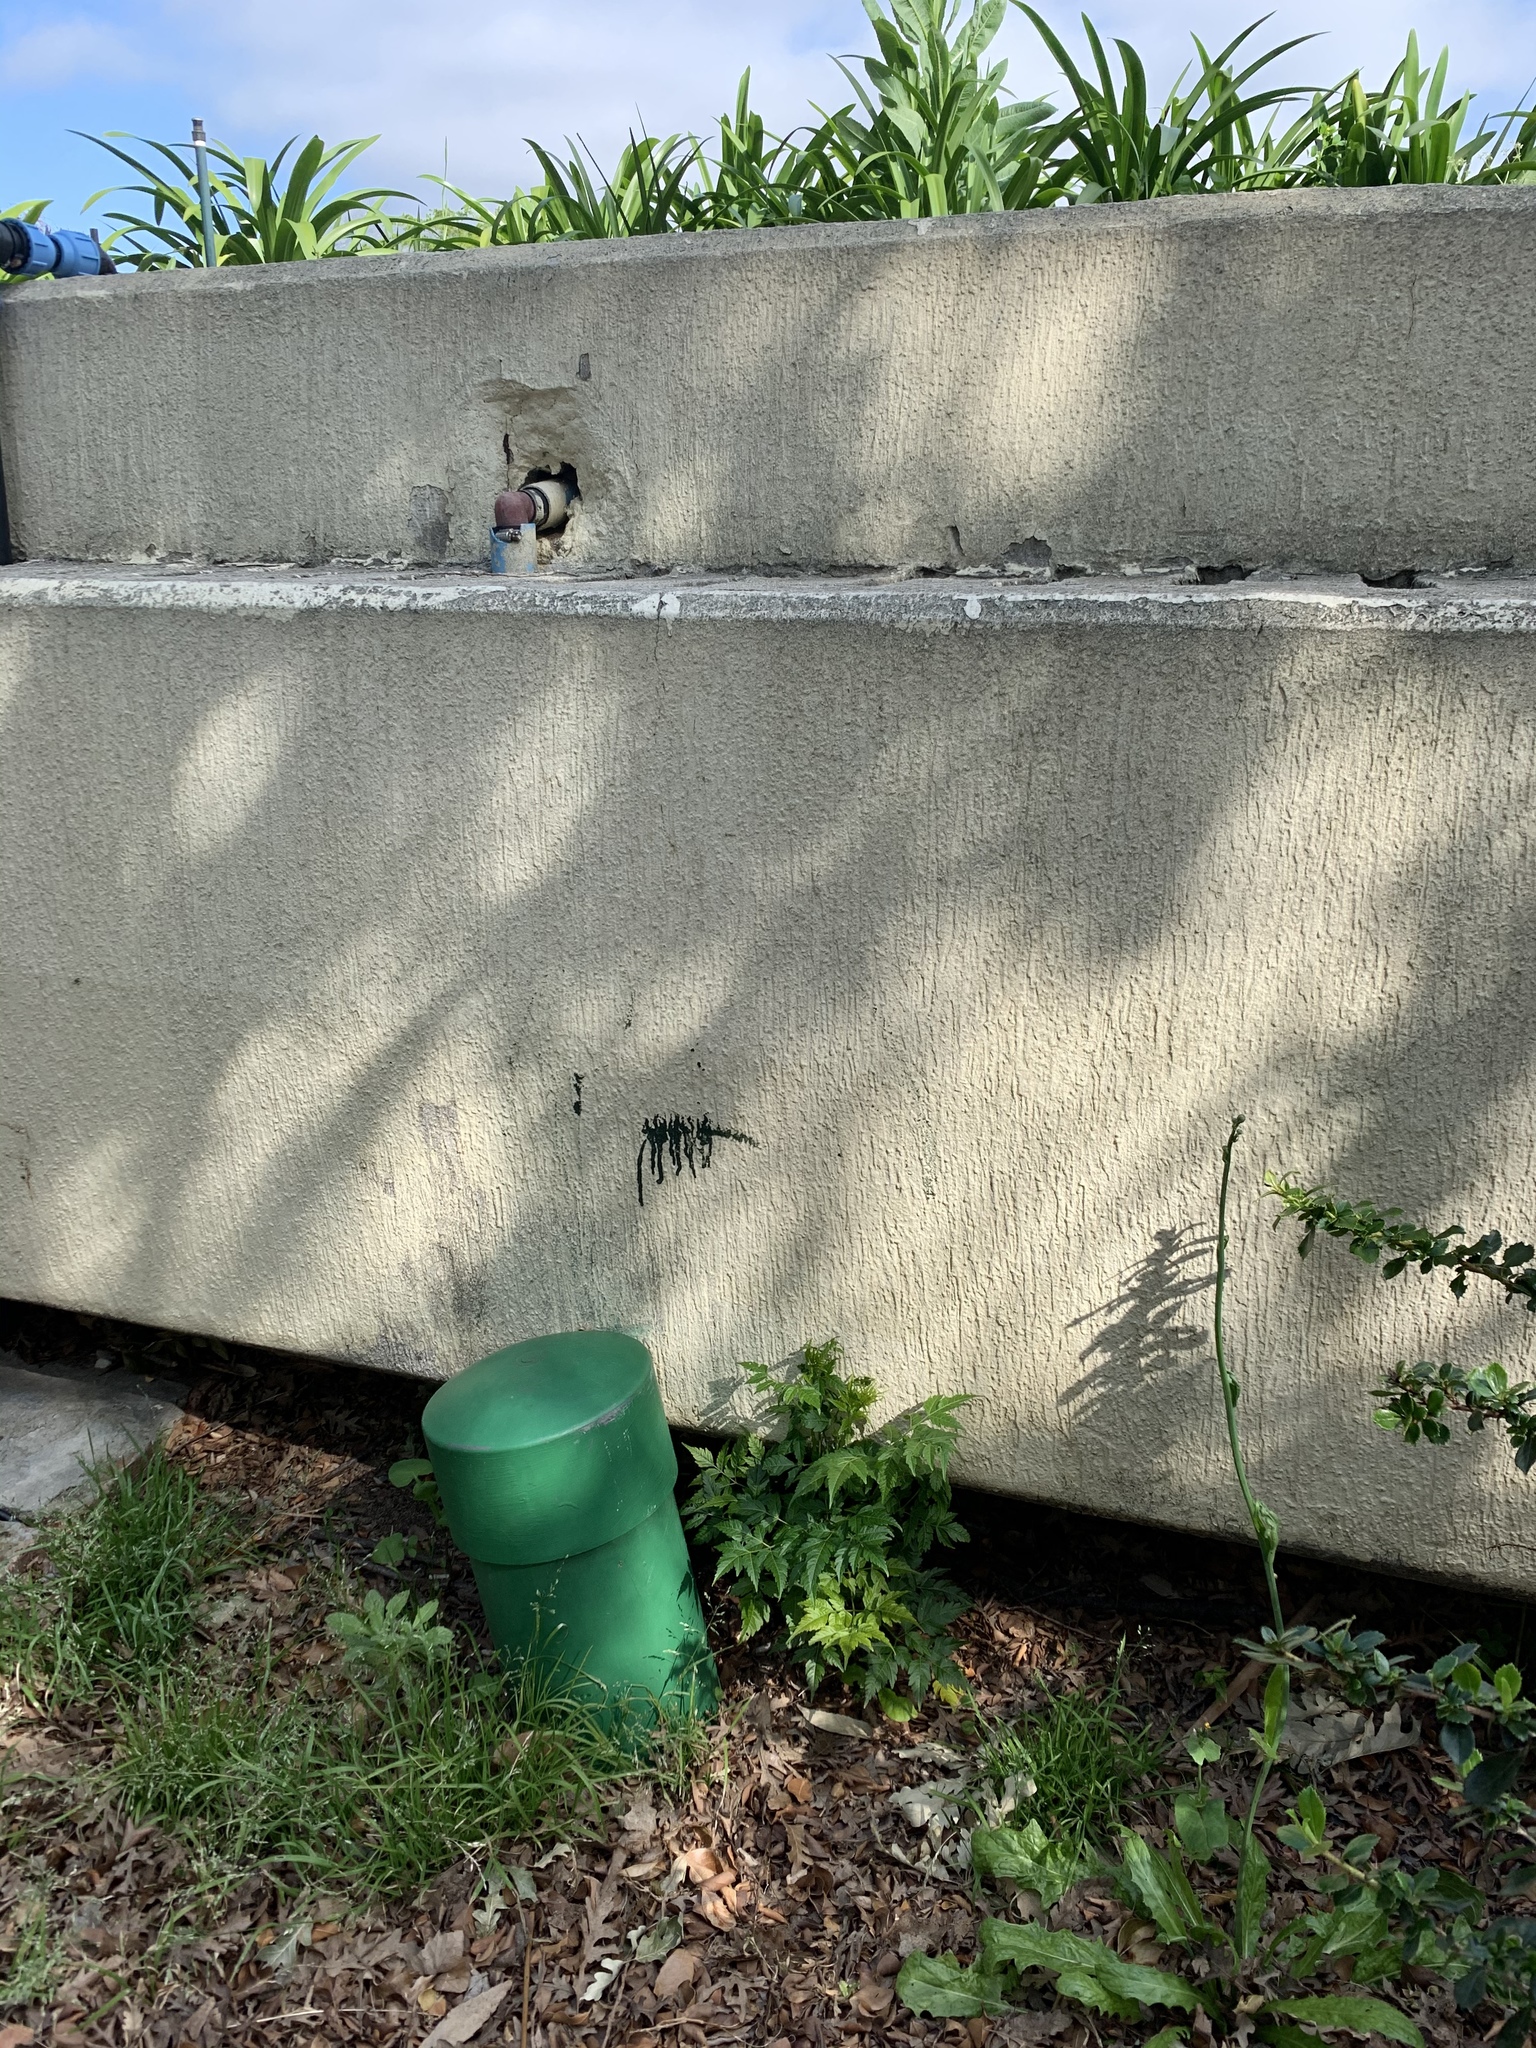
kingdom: Plantae
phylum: Tracheophyta
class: Magnoliopsida
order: Sapindales
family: Meliaceae
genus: Melia
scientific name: Melia azedarach
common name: Chinaberrytree
